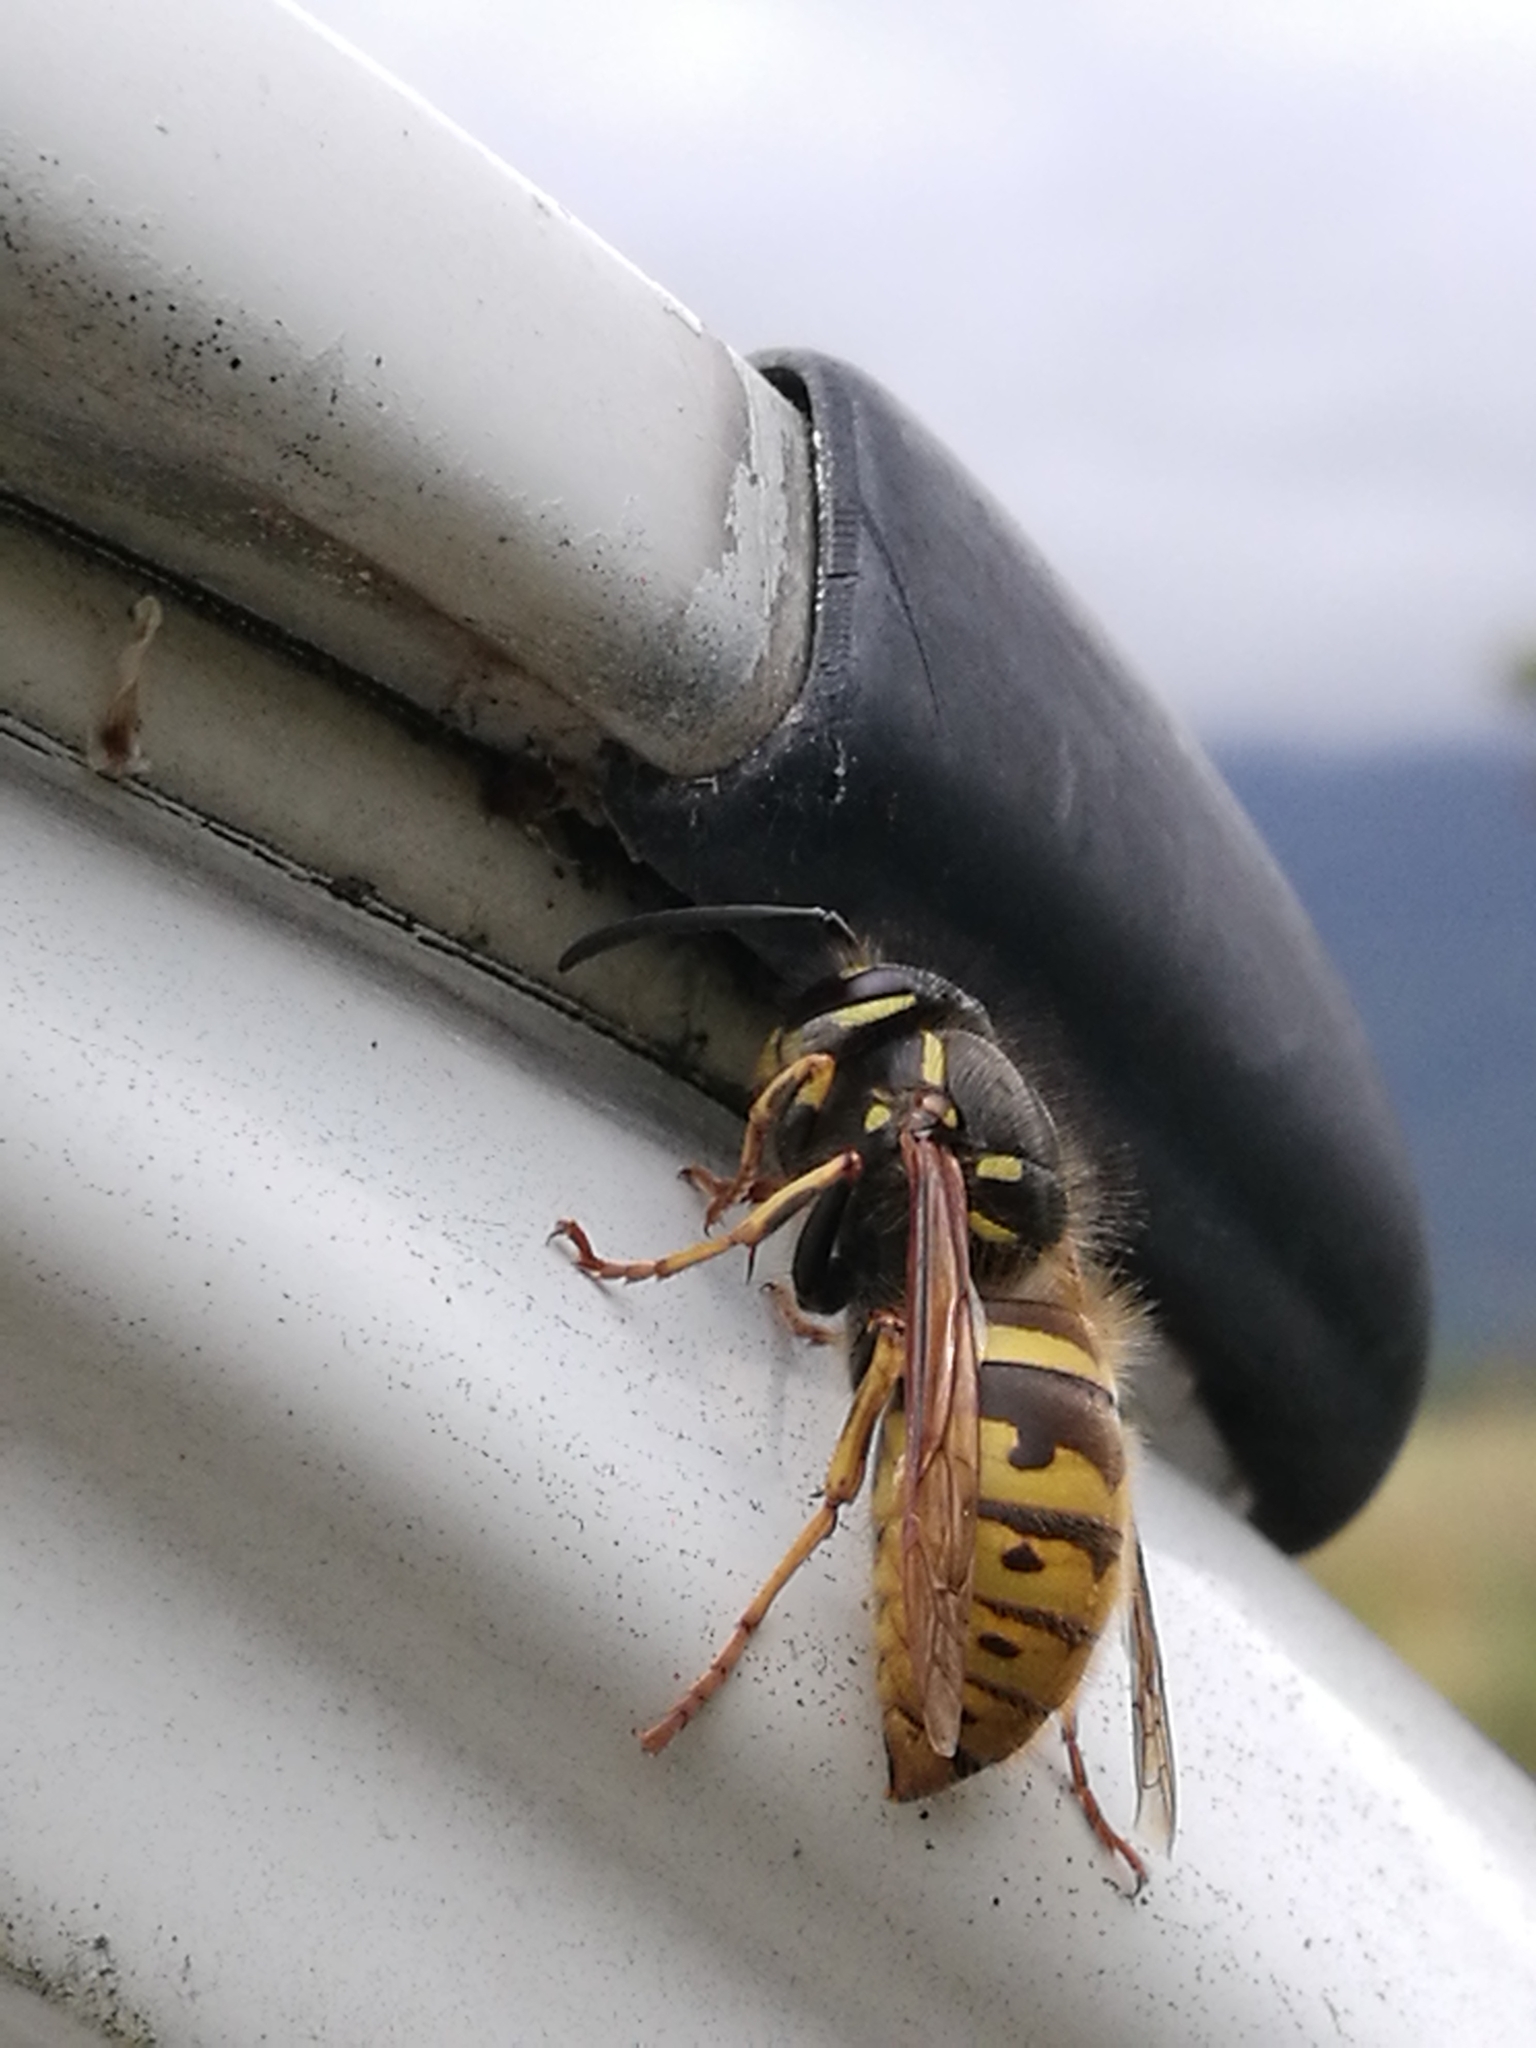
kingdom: Animalia
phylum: Arthropoda
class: Insecta
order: Hymenoptera
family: Vespidae
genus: Vespula
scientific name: Vespula vulgaris
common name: Common wasp
